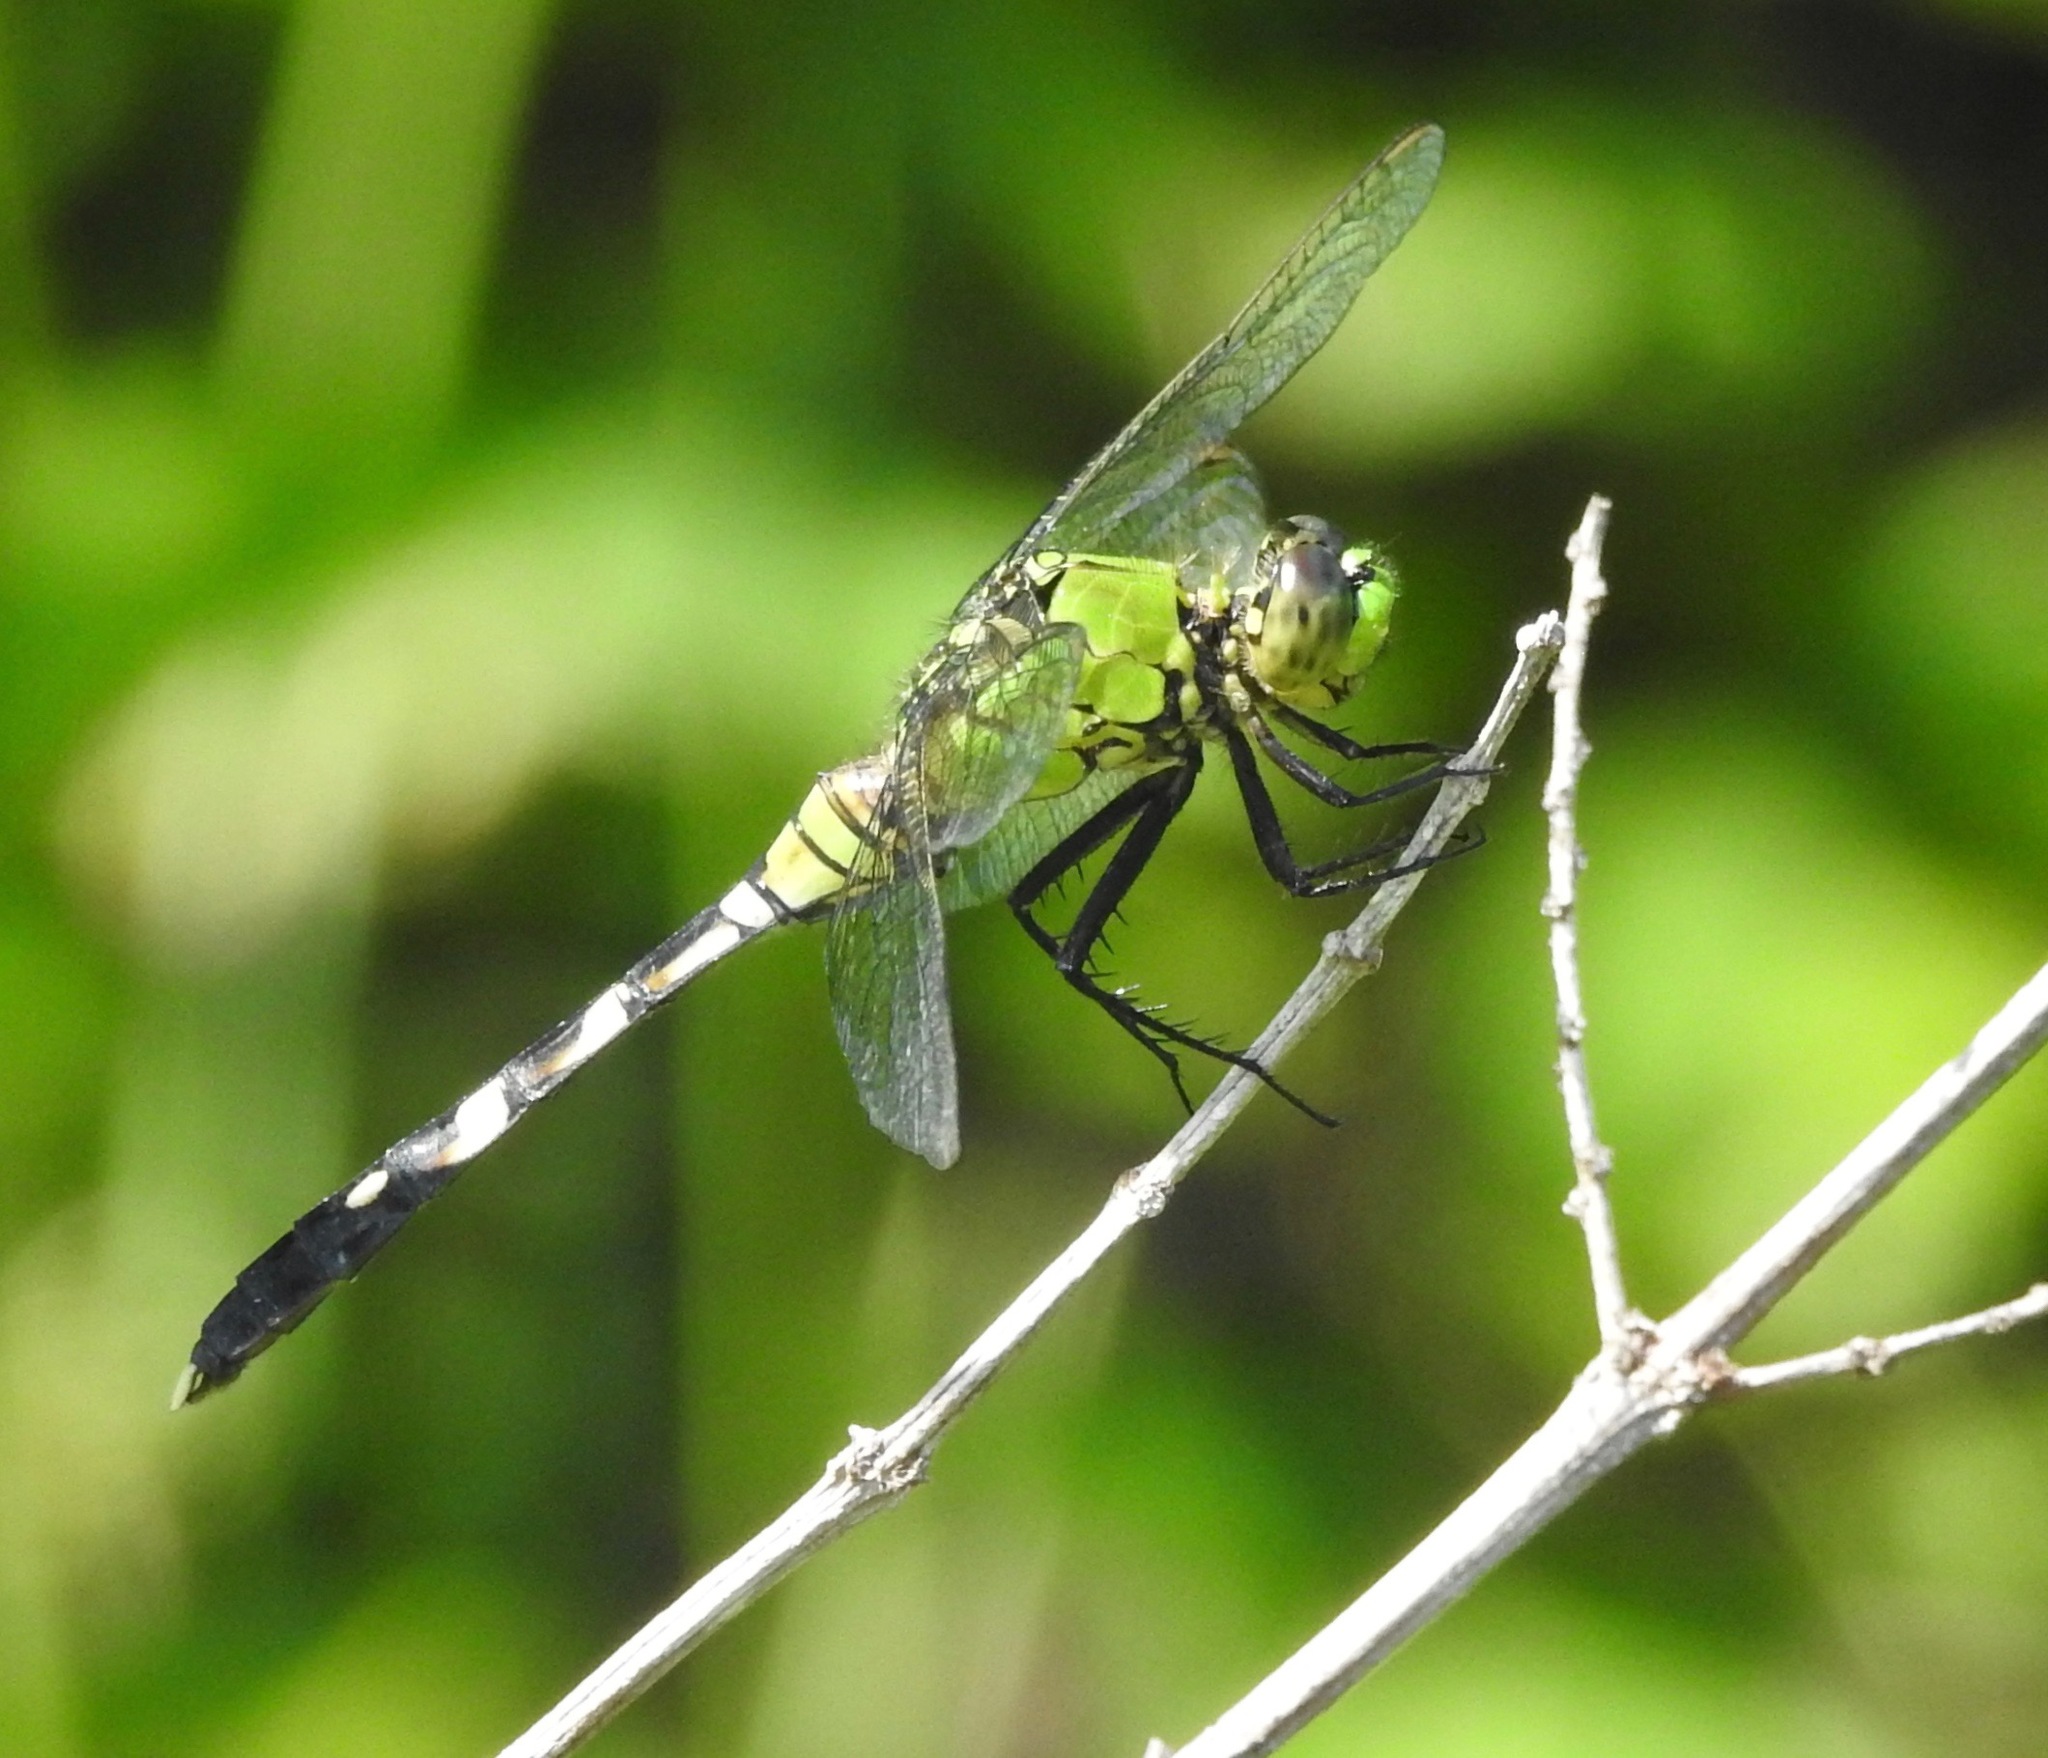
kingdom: Animalia
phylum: Arthropoda
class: Insecta
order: Odonata
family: Libellulidae
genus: Erythemis
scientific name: Erythemis simplicicollis
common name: Eastern pondhawk
